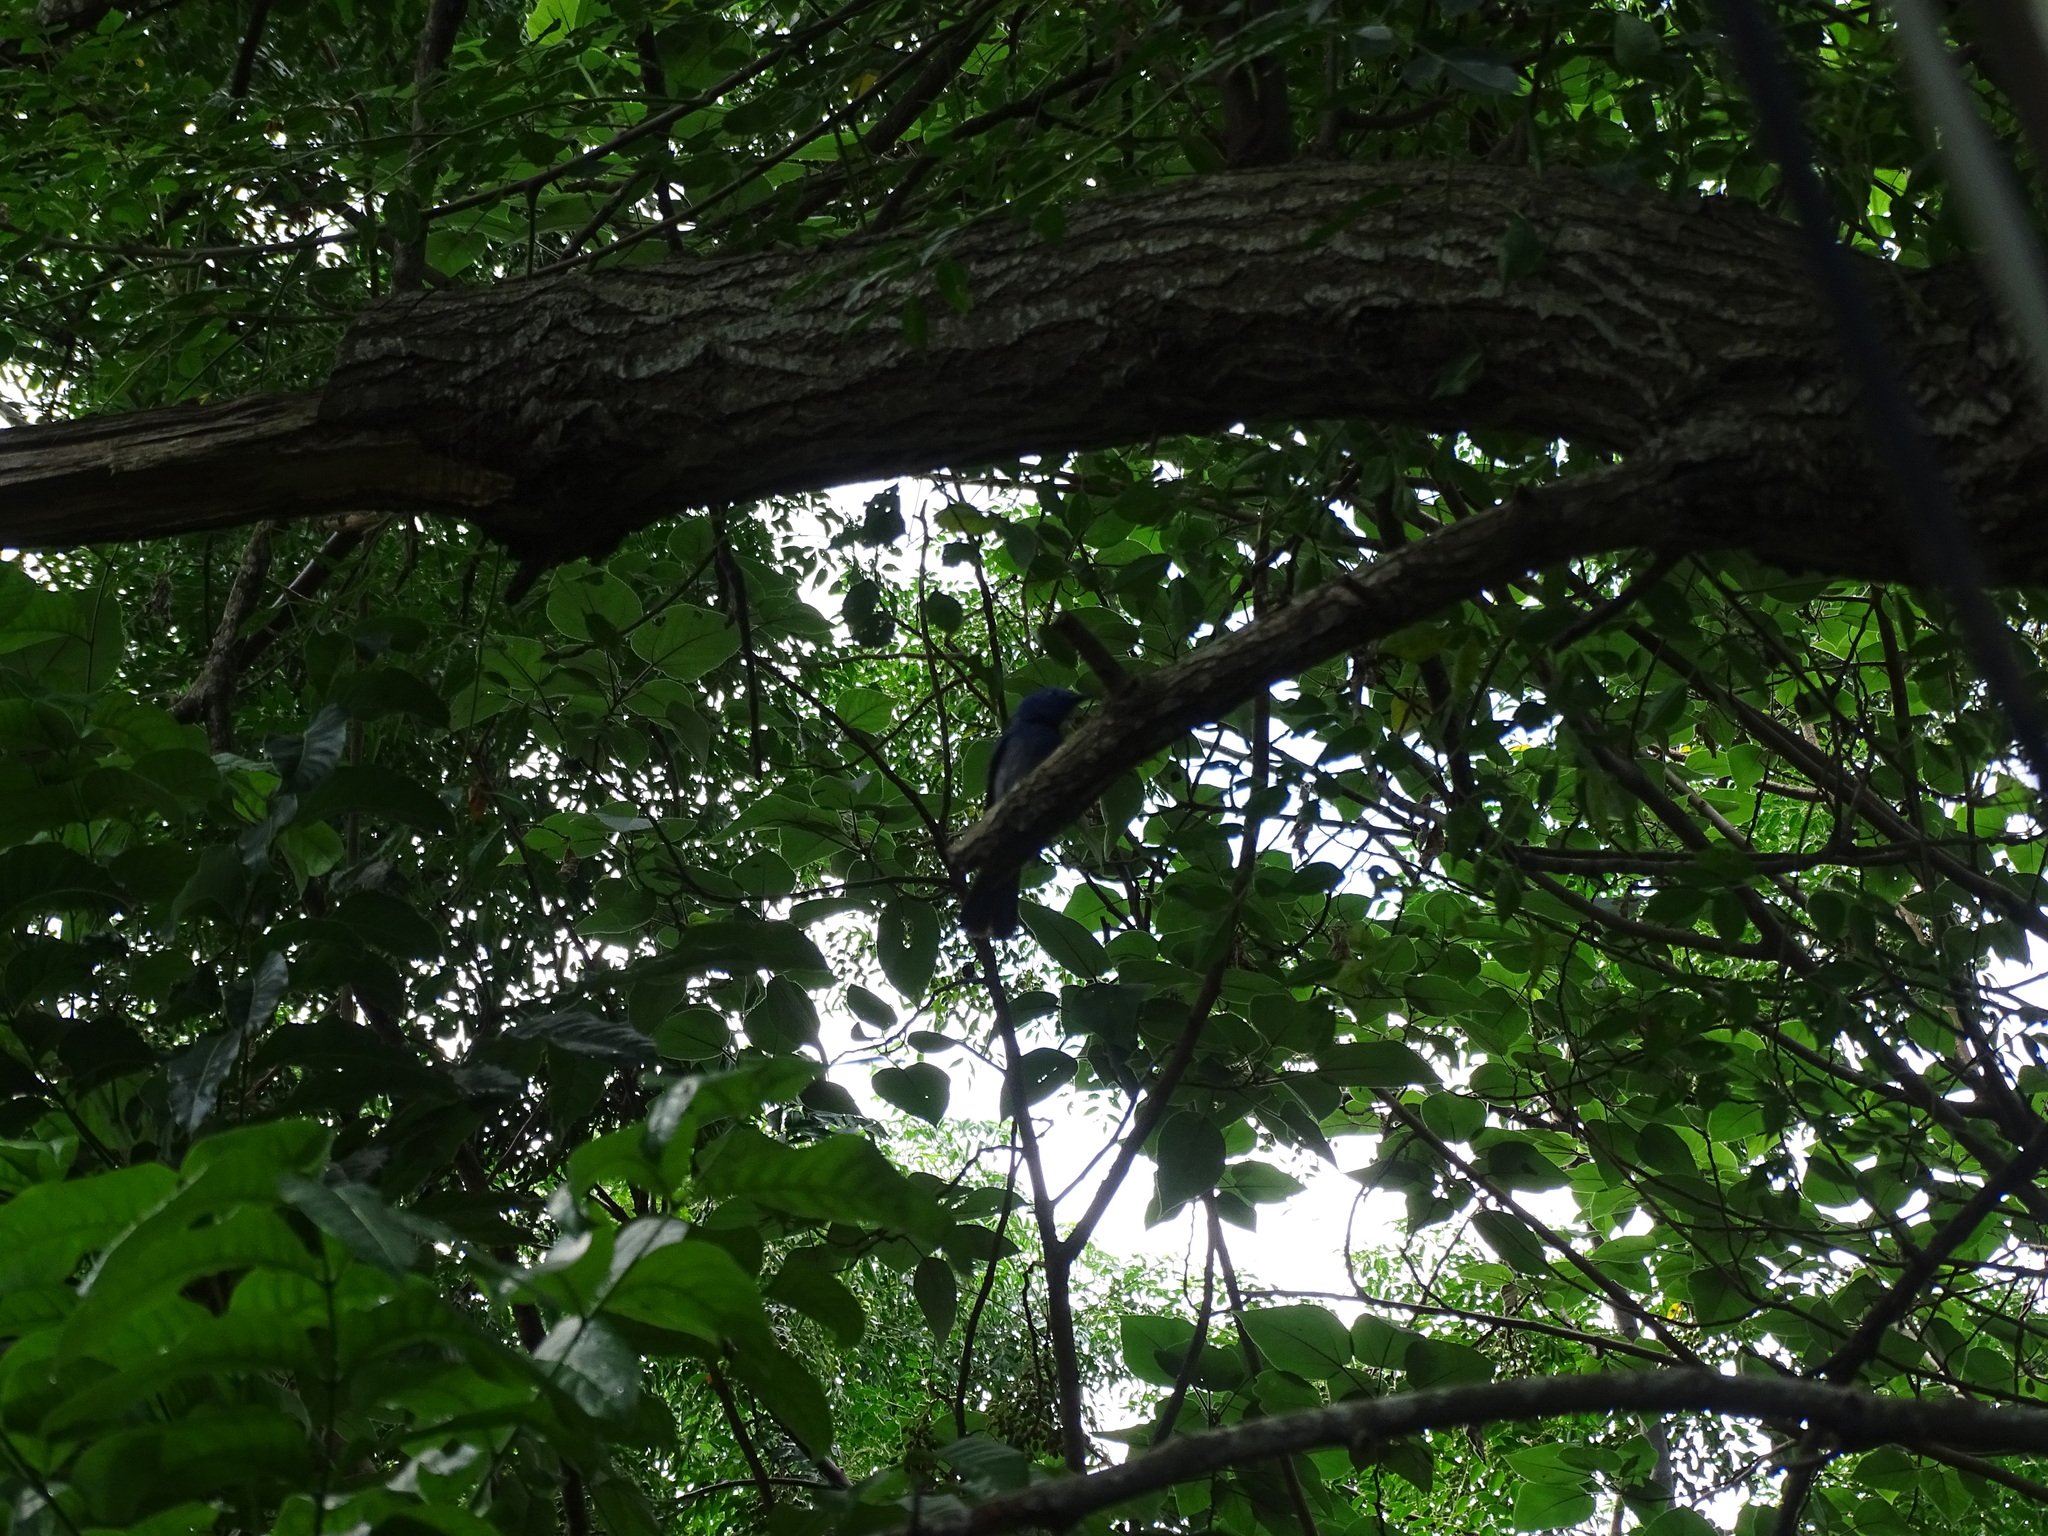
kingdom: Animalia
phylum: Chordata
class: Aves
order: Passeriformes
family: Monarchidae
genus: Hypothymis
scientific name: Hypothymis azurea
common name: Black-naped monarch
